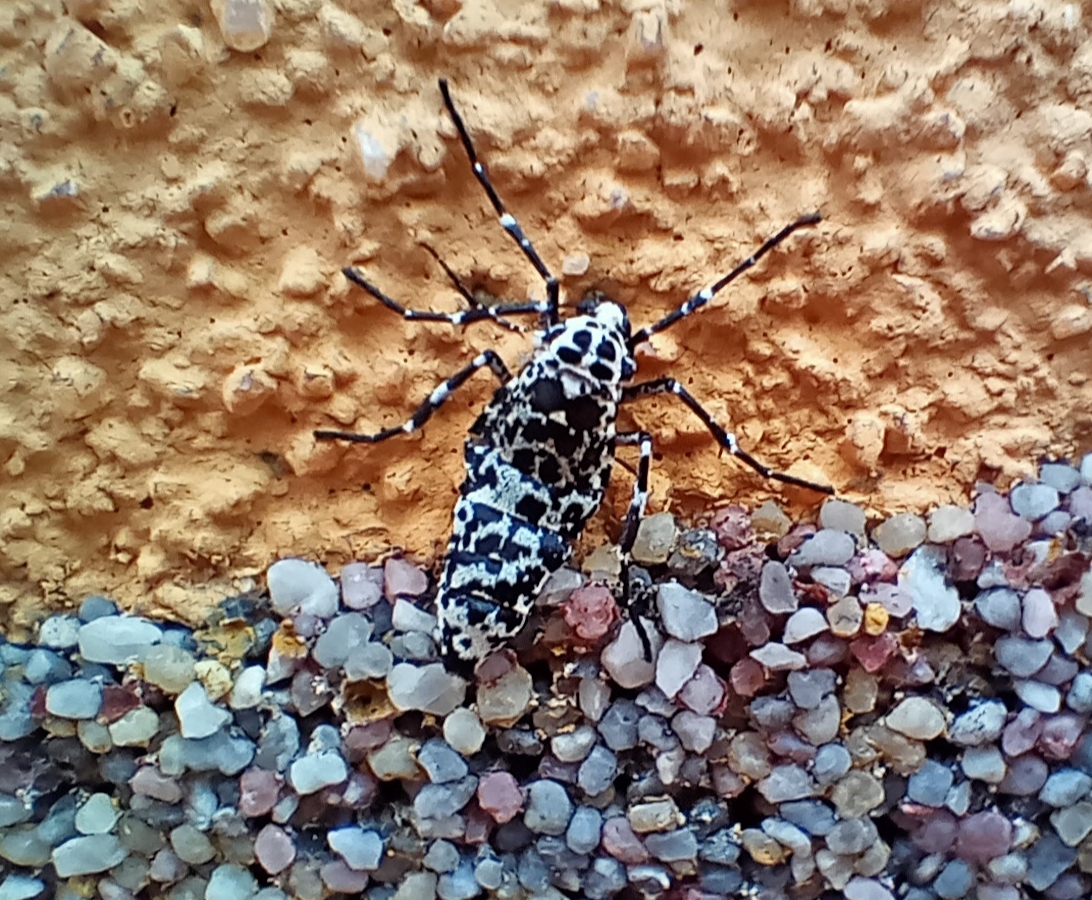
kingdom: Animalia
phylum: Arthropoda
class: Insecta
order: Lepidoptera
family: Geometridae
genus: Erannis
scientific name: Erannis defoliaria
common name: Mottled umber
